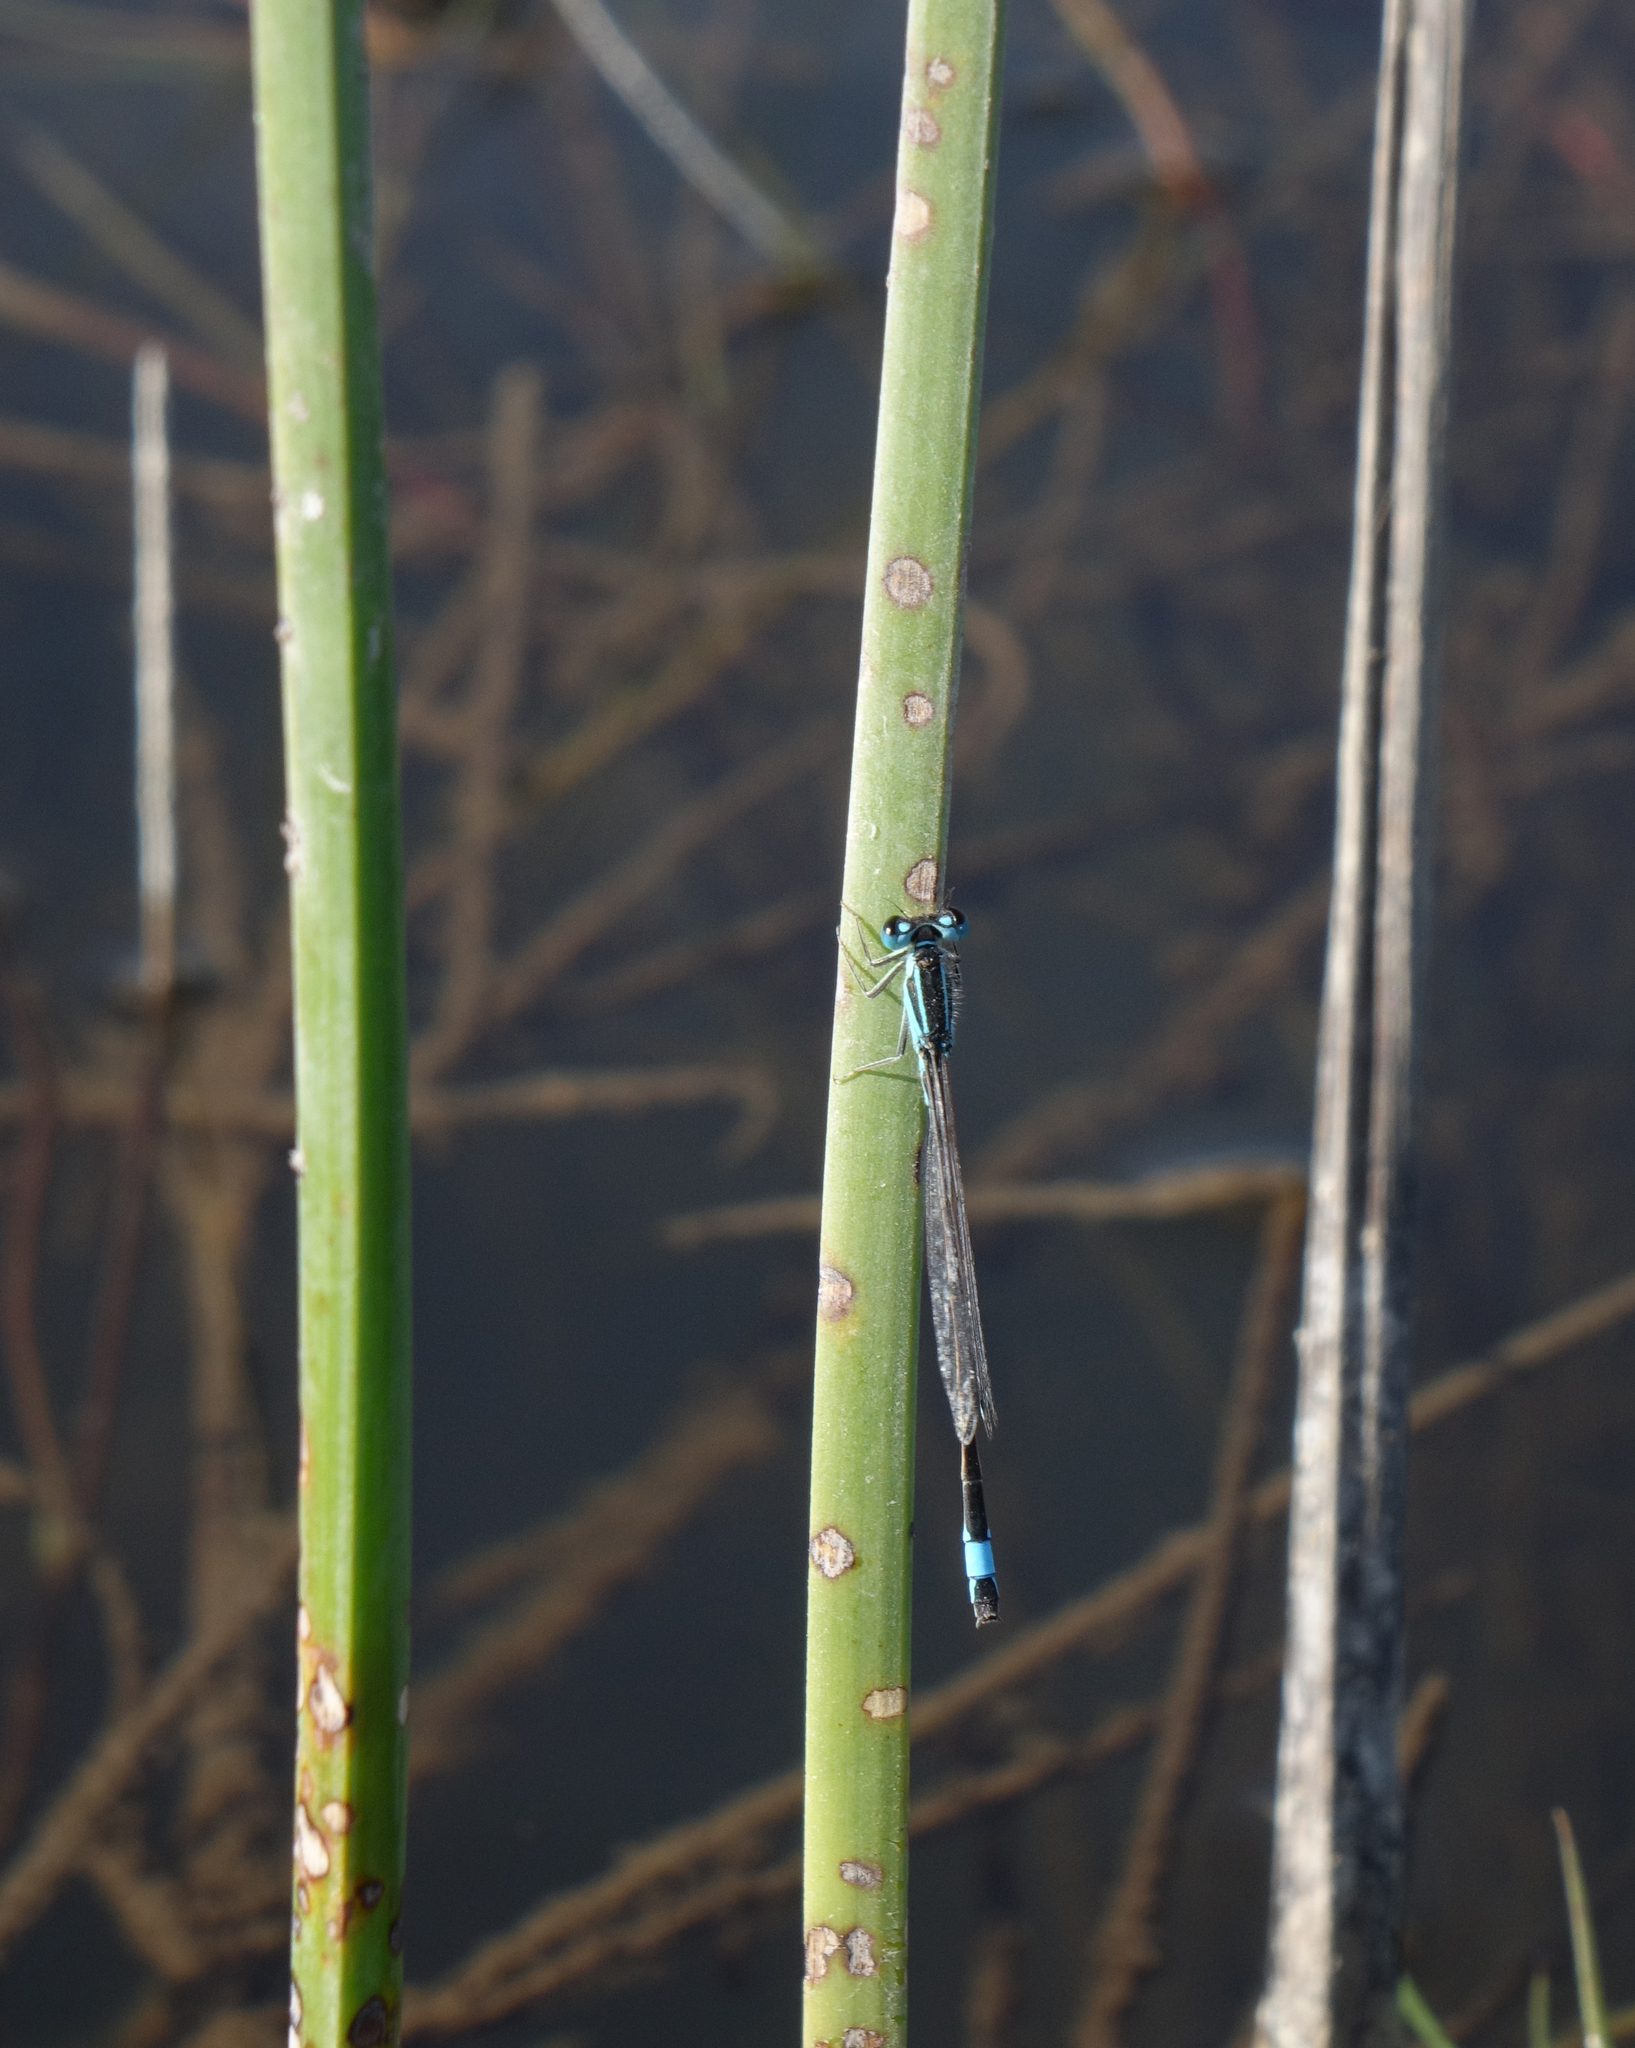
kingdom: Animalia
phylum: Arthropoda
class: Insecta
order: Odonata
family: Coenagrionidae
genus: Ischnura
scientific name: Ischnura elegans
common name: Blue-tailed damselfly
